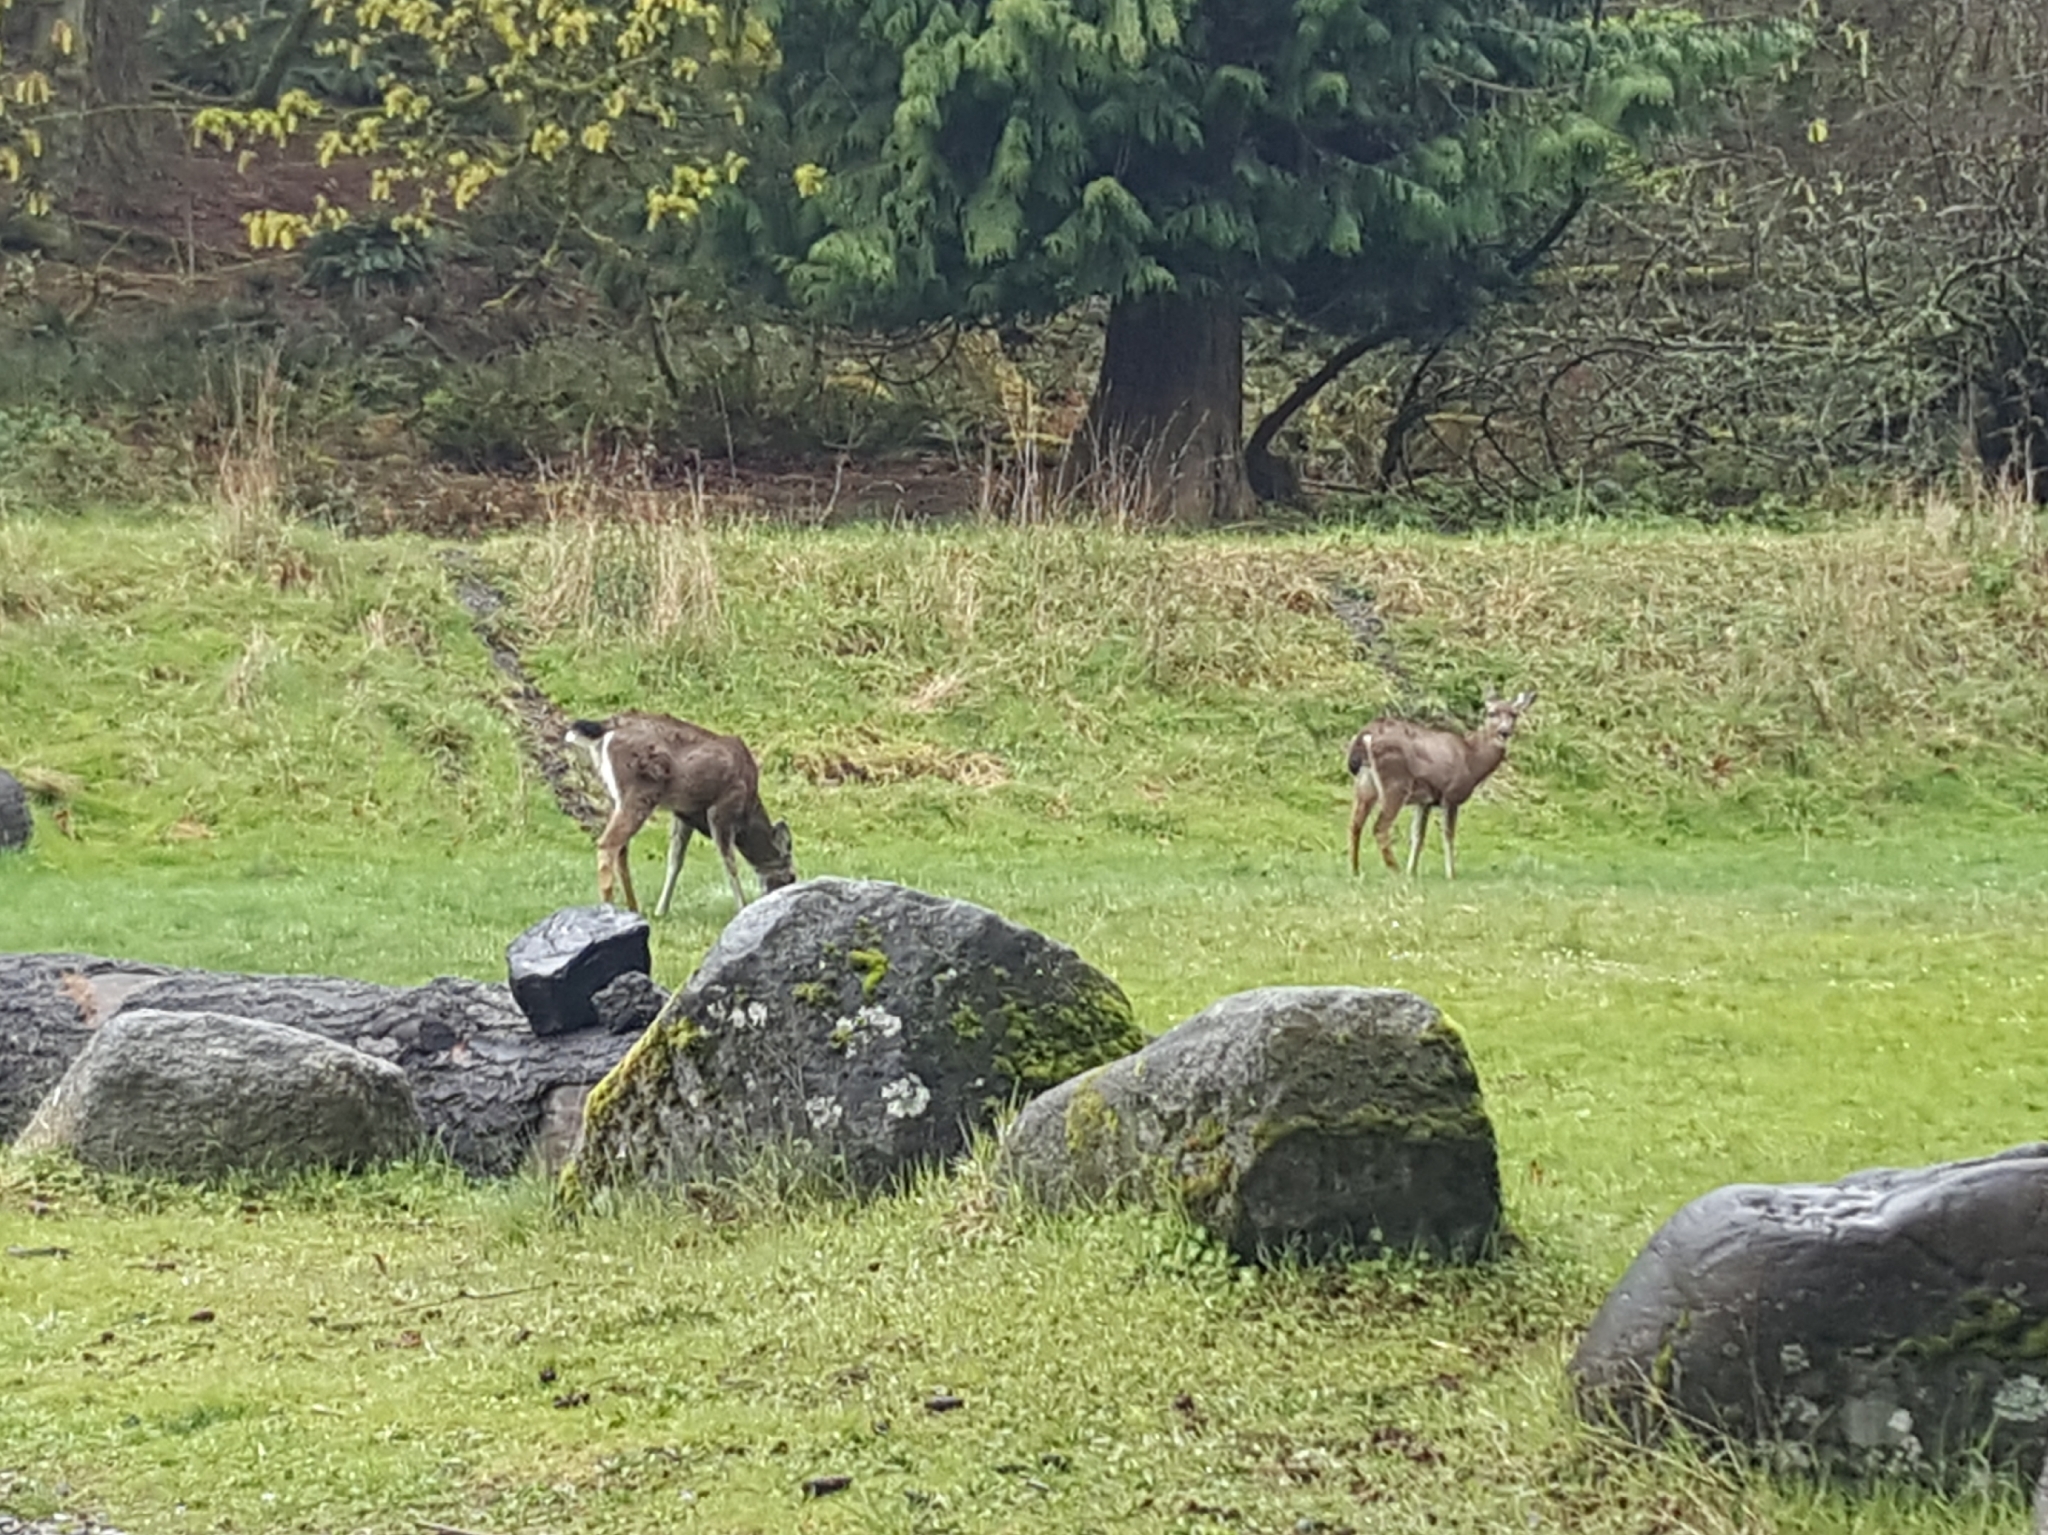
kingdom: Animalia
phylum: Chordata
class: Mammalia
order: Artiodactyla
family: Cervidae
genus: Odocoileus
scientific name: Odocoileus hemionus
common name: Mule deer
